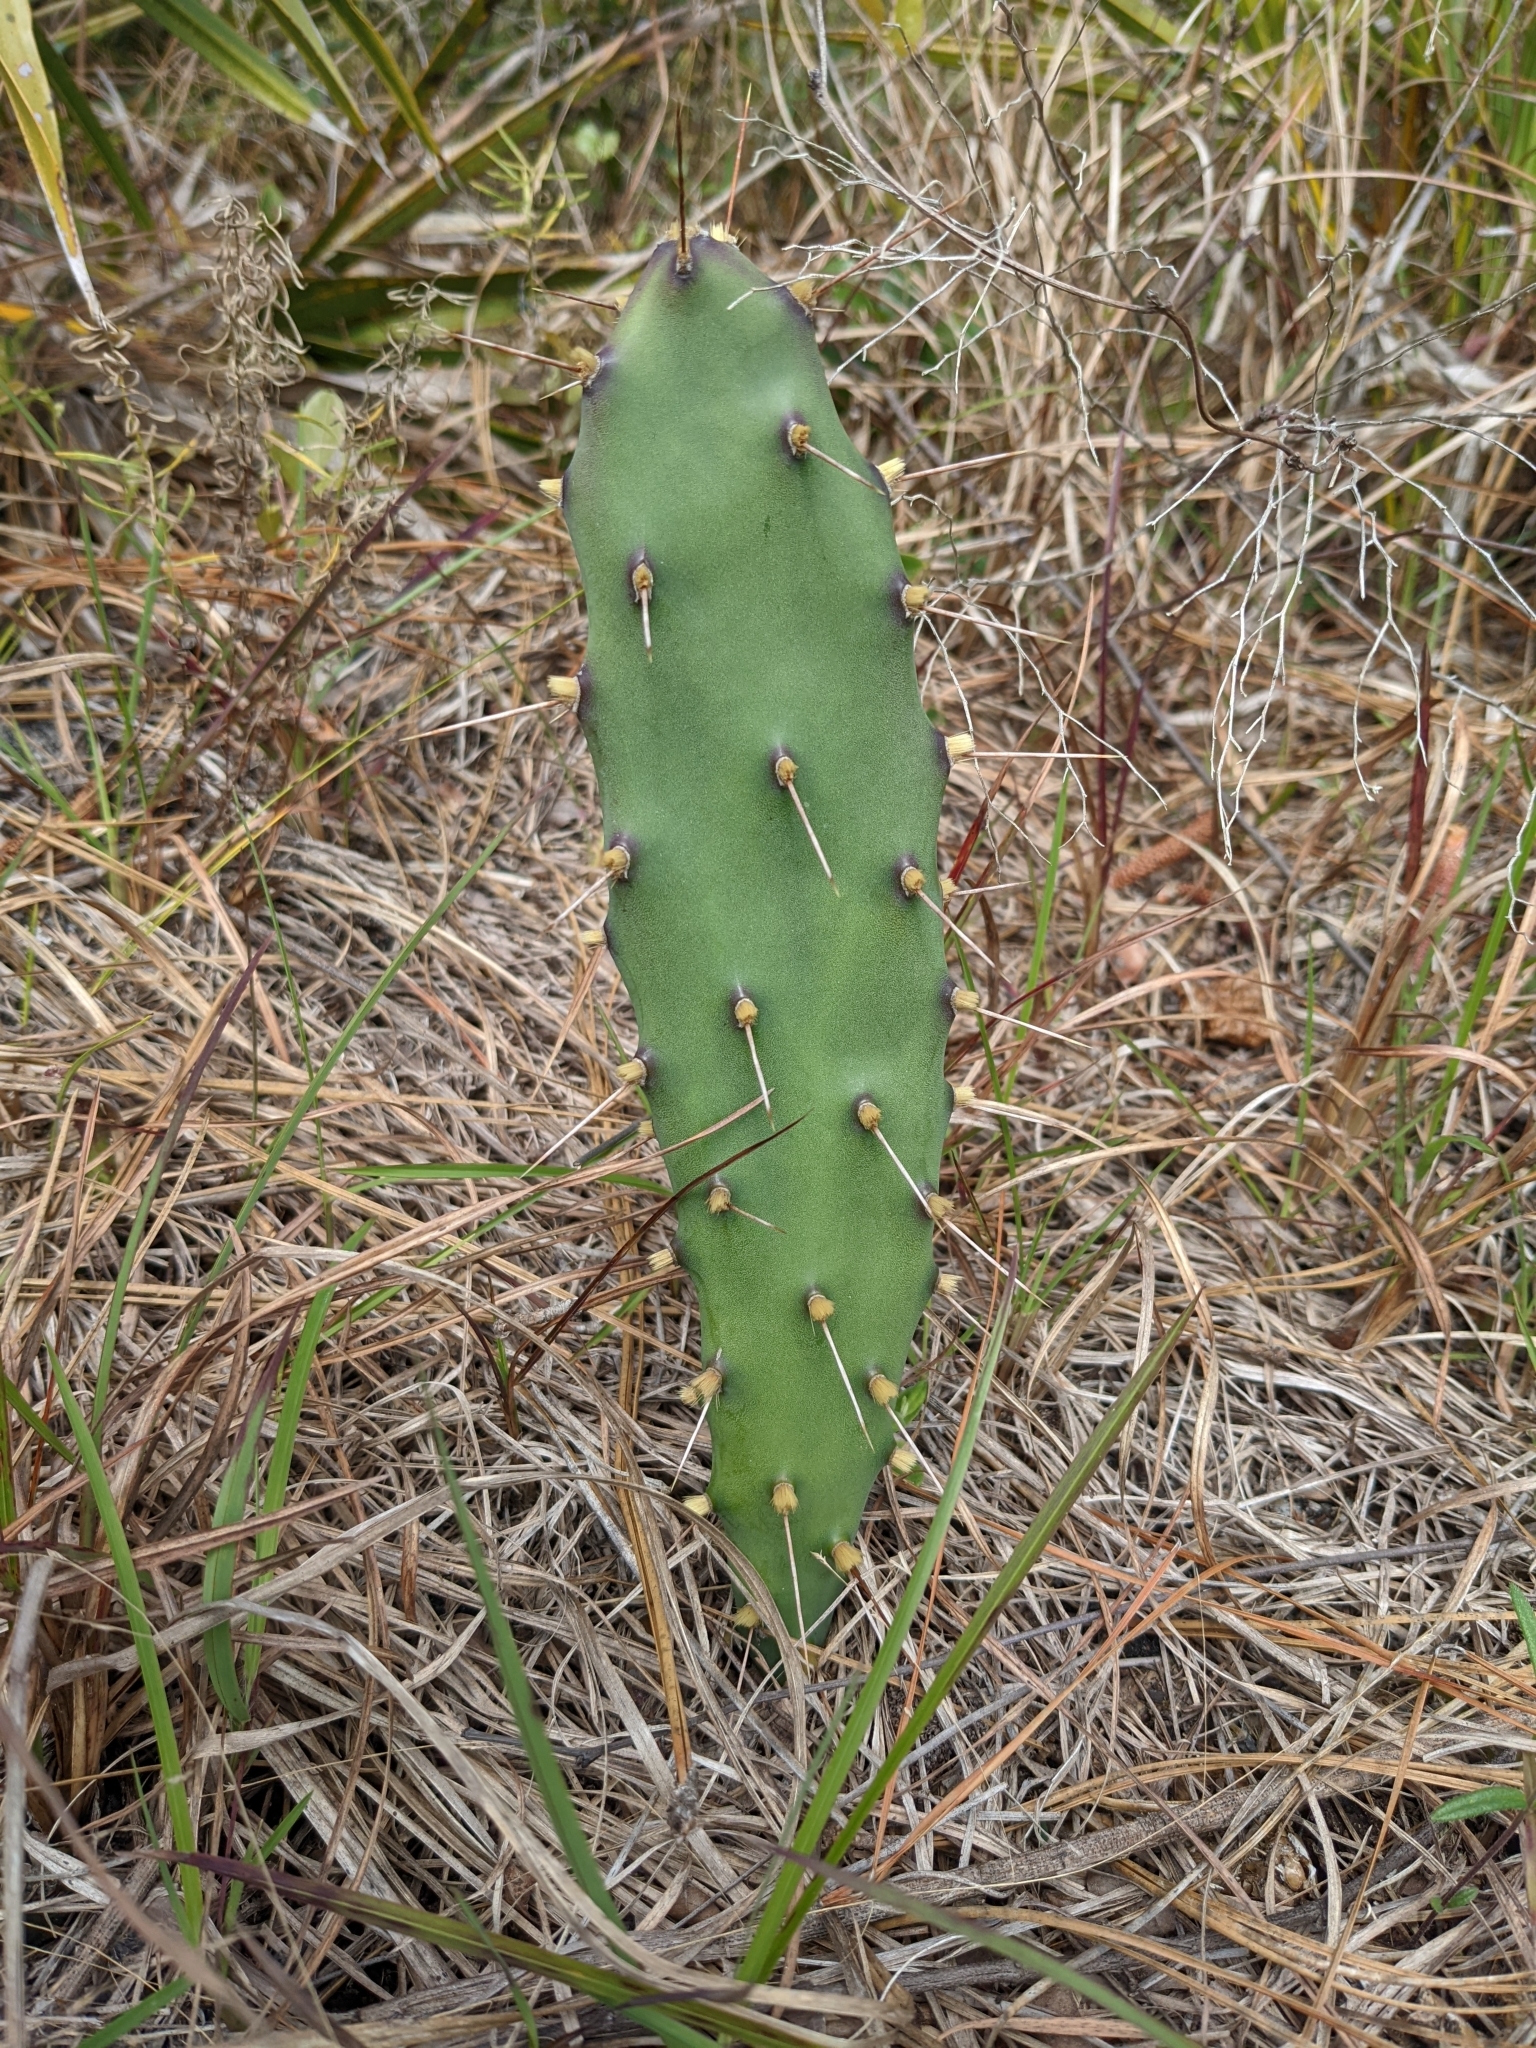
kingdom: Plantae
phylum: Tracheophyta
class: Magnoliopsida
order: Caryophyllales
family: Cactaceae
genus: Opuntia
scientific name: Opuntia austrina
